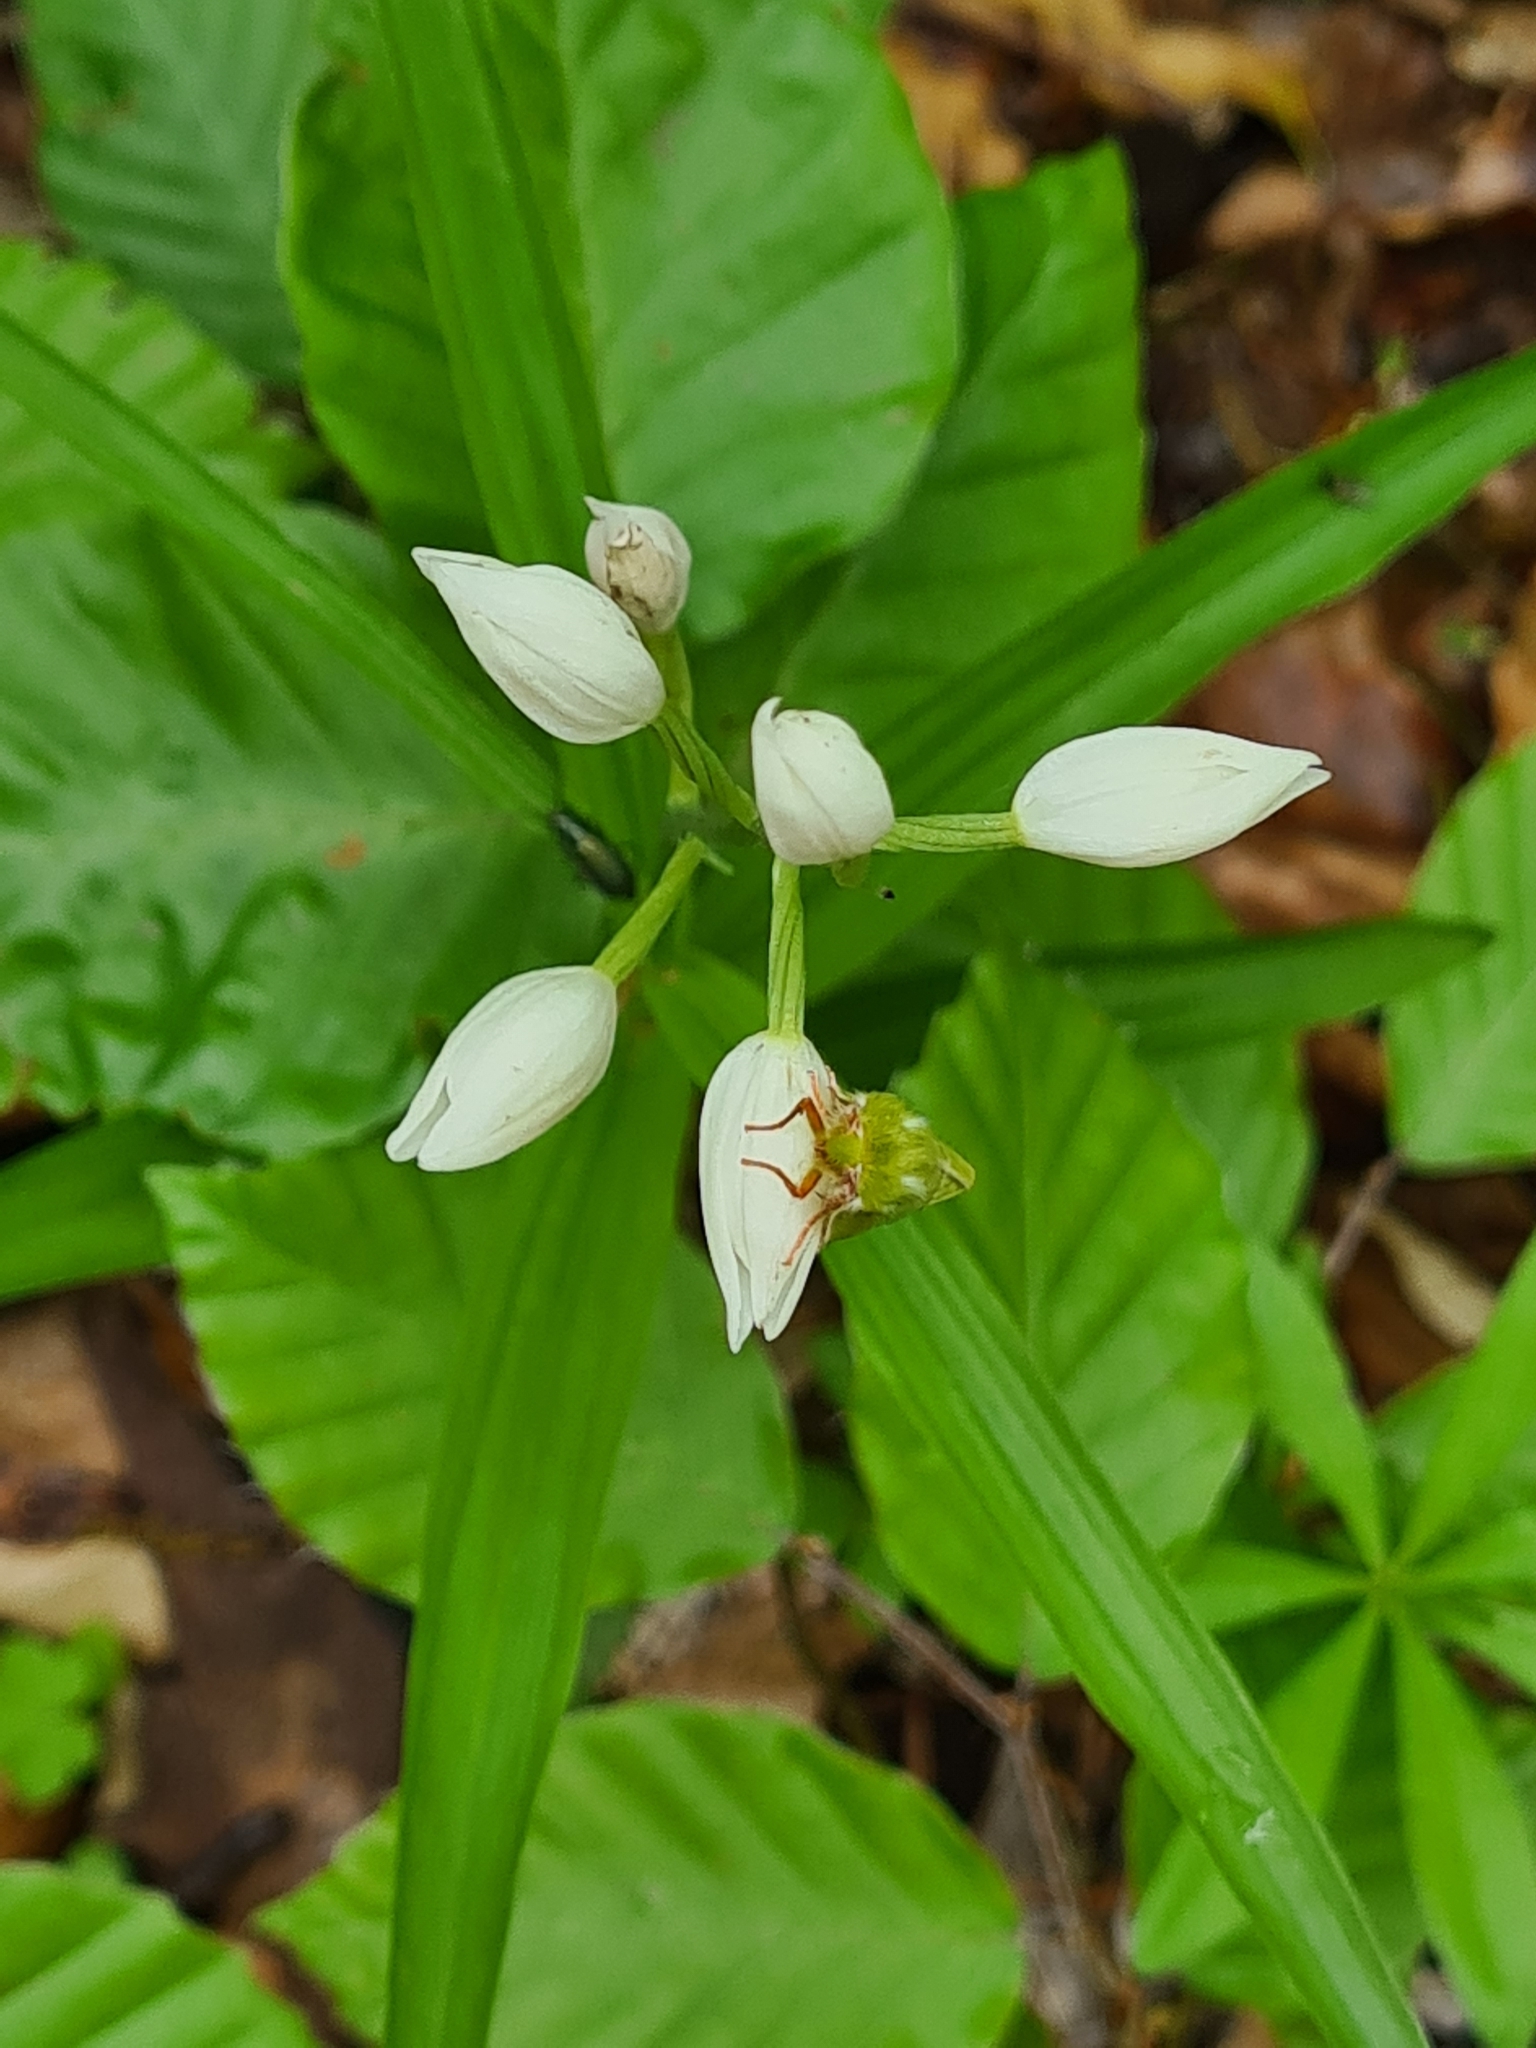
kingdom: Plantae
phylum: Tracheophyta
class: Liliopsida
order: Asparagales
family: Orchidaceae
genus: Cephalanthera
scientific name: Cephalanthera longifolia
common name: Narrow-leaved helleborine
